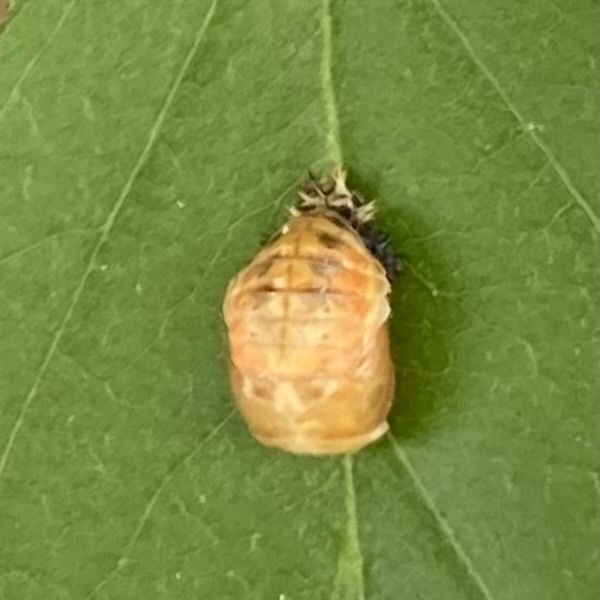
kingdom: Animalia
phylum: Arthropoda
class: Insecta
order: Coleoptera
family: Coccinellidae
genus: Harmonia
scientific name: Harmonia axyridis
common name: Harlequin ladybird
